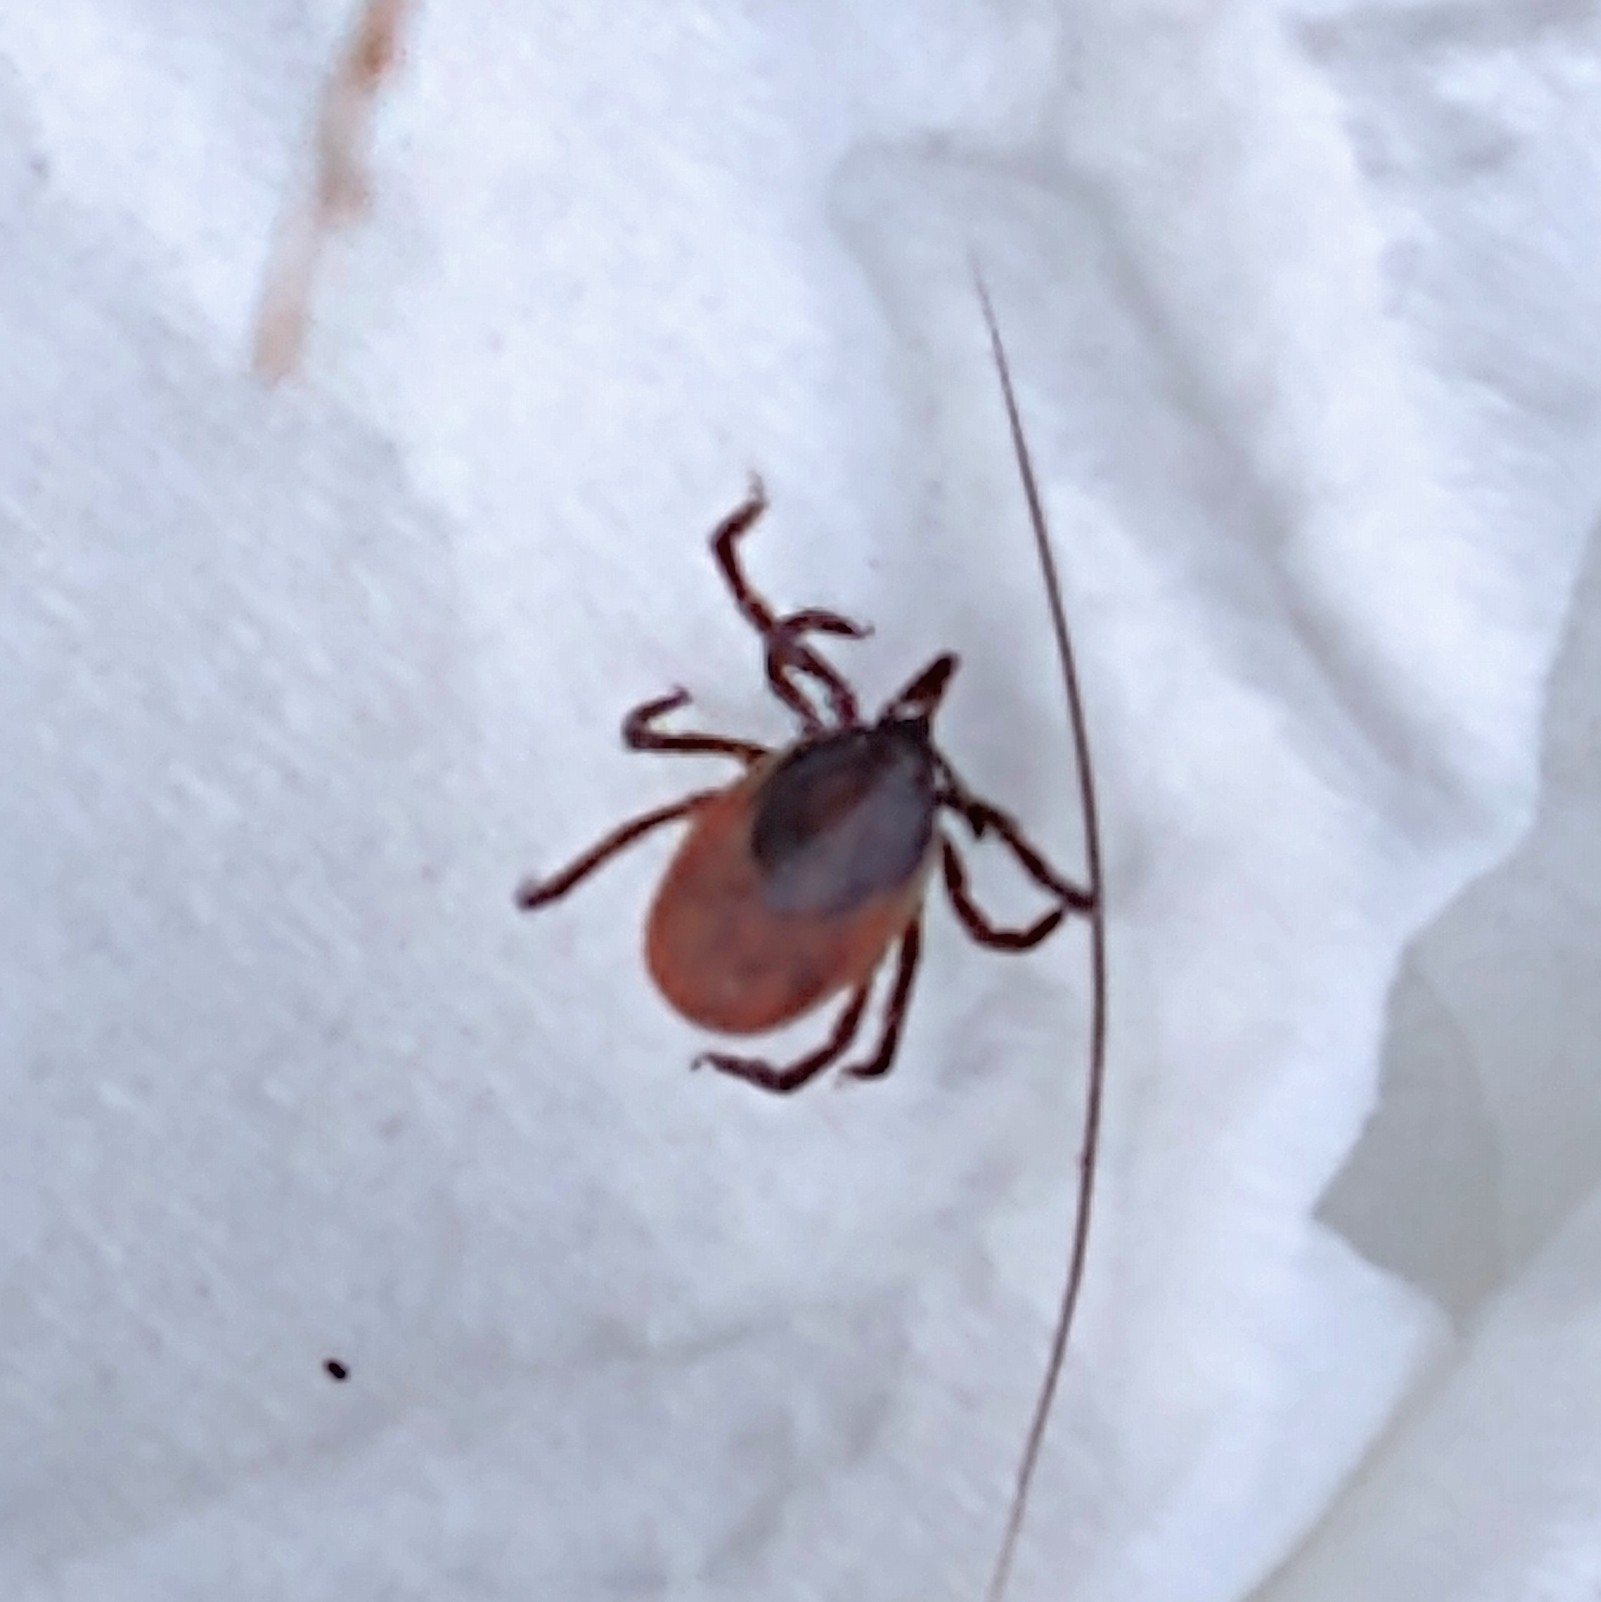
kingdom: Animalia
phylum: Arthropoda
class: Arachnida
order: Ixodida
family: Ixodidae
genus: Ixodes
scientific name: Ixodes ricinus
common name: Castor bean tick
